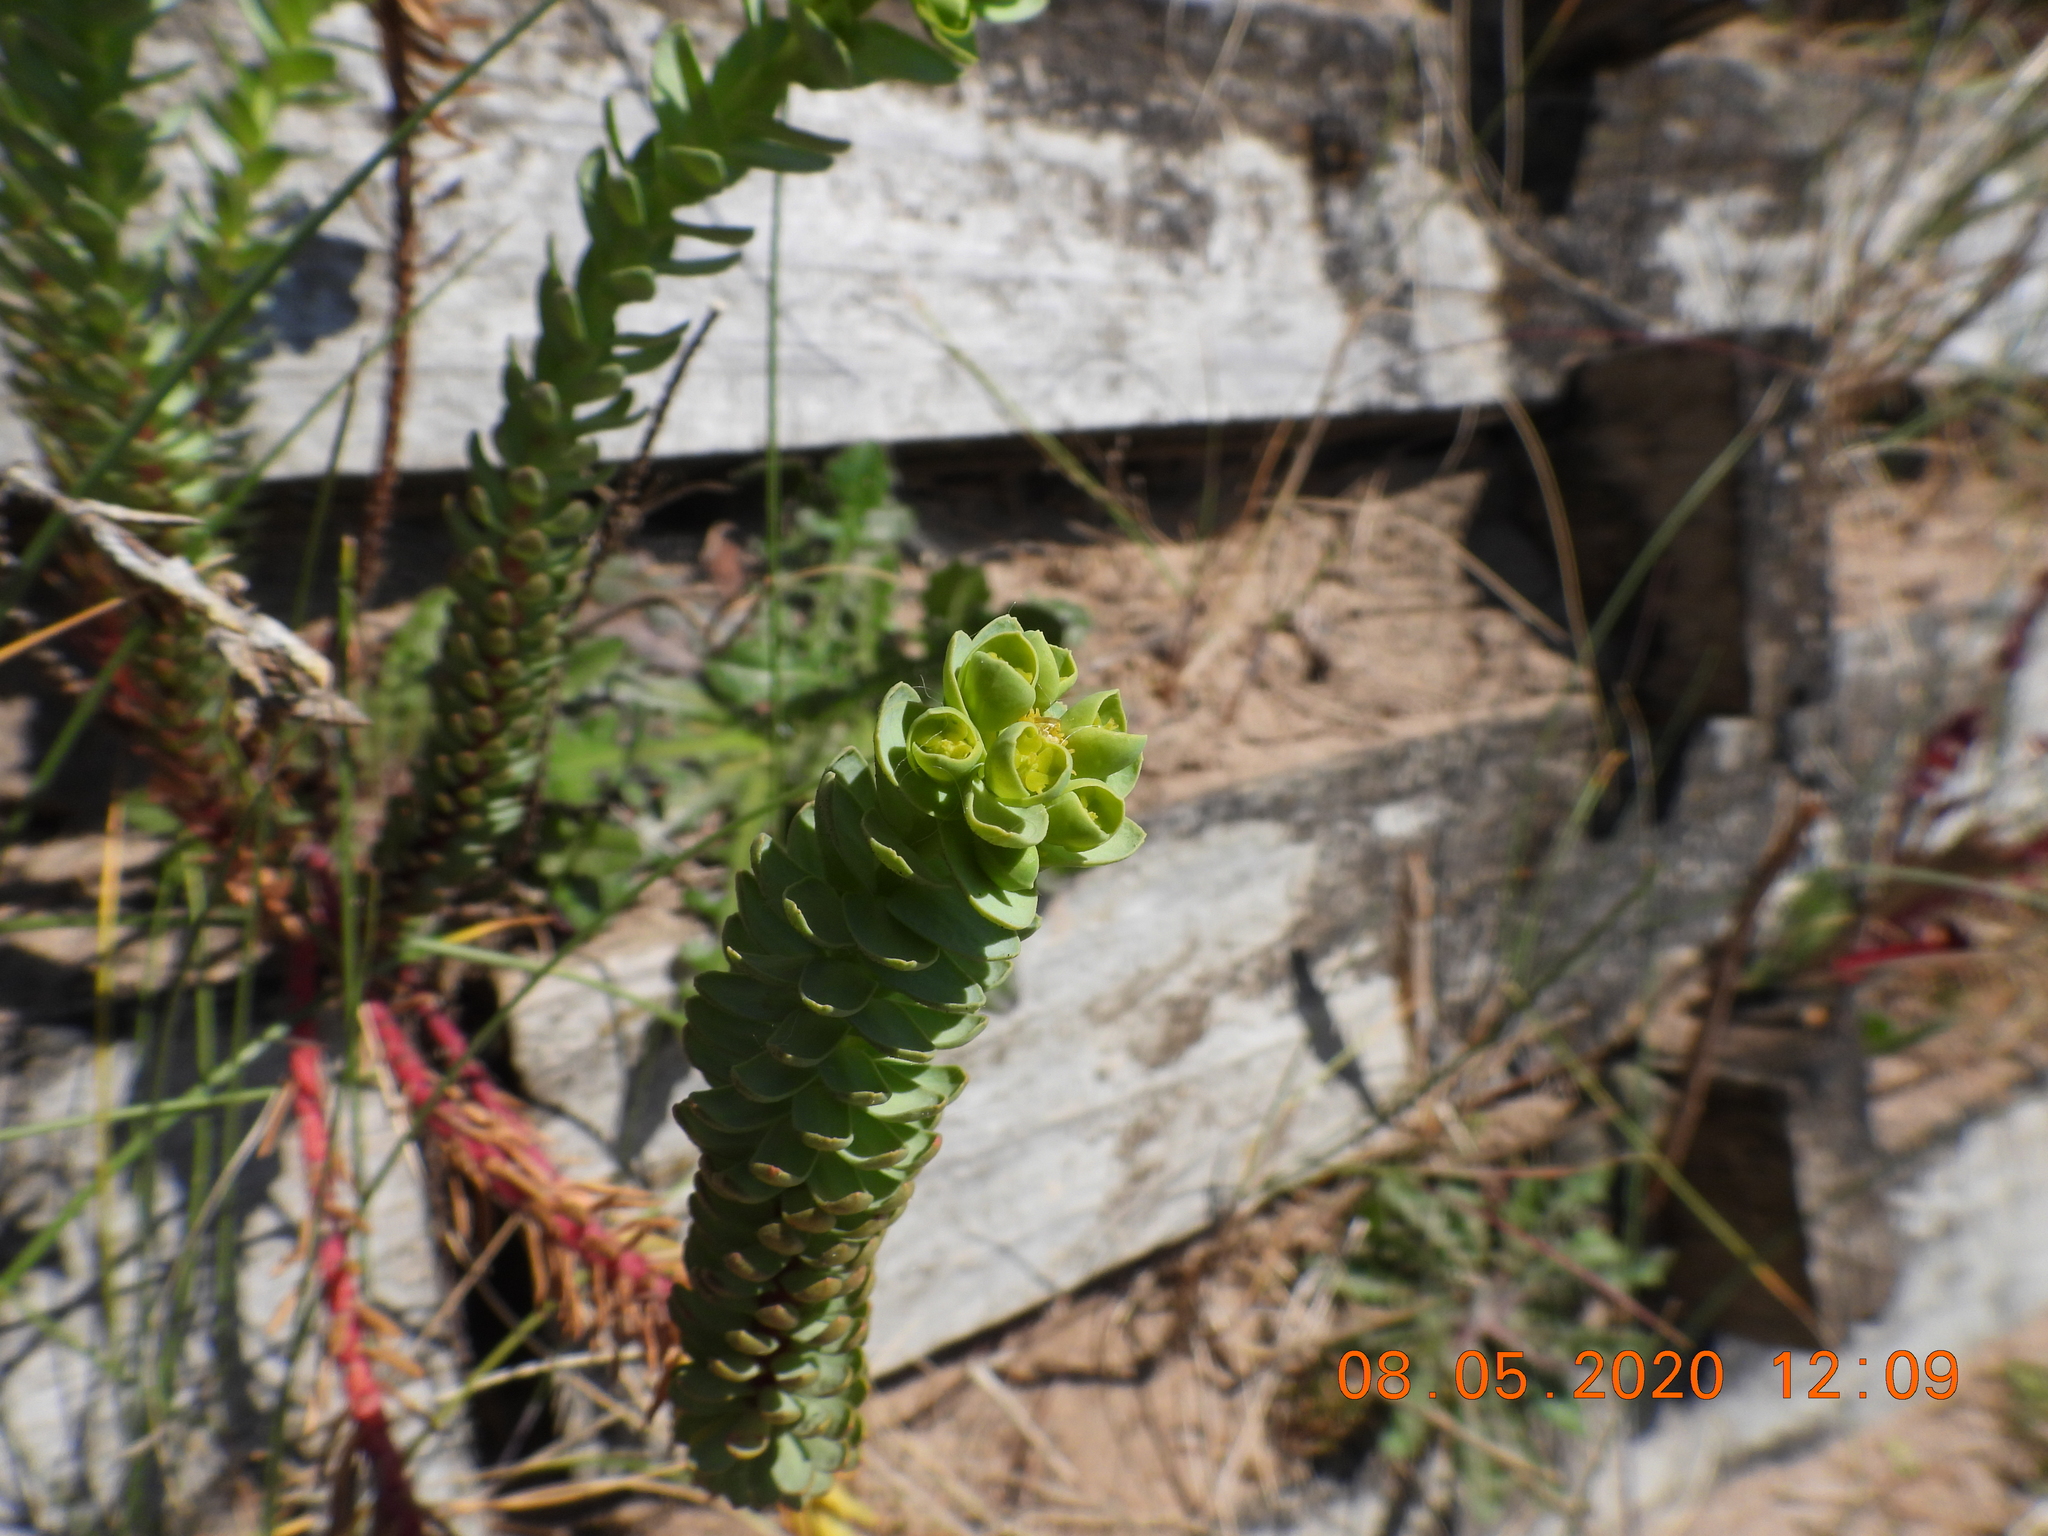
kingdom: Plantae
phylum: Tracheophyta
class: Magnoliopsida
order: Malpighiales
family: Euphorbiaceae
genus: Euphorbia
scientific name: Euphorbia paralias
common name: Sea spurge
